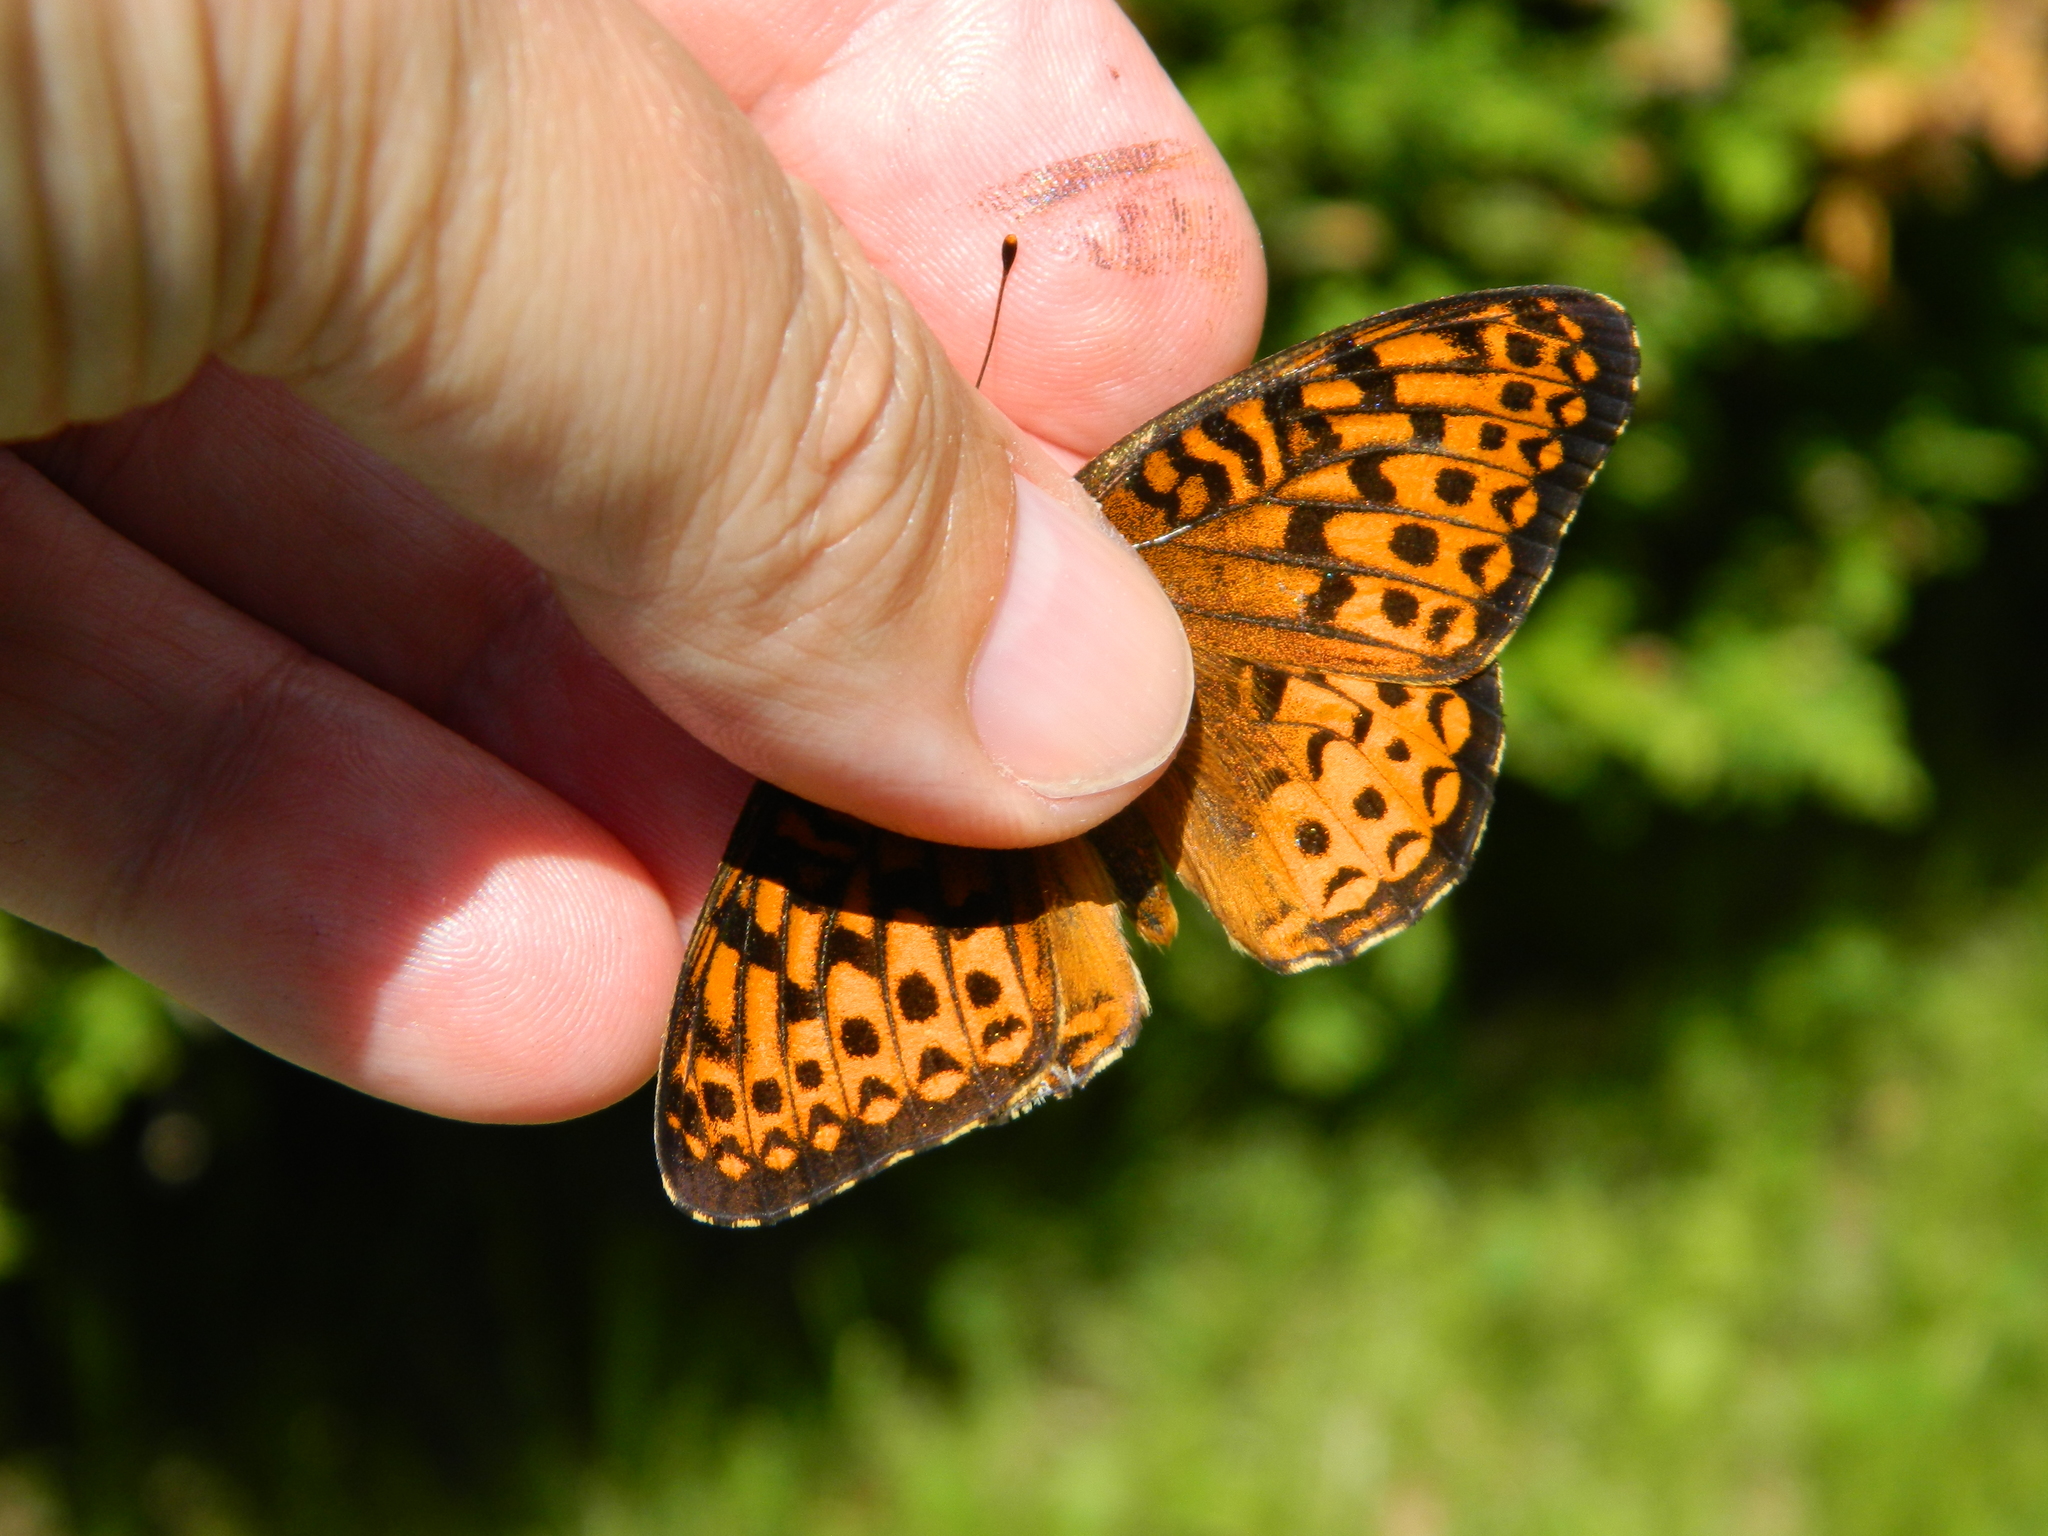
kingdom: Animalia
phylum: Arthropoda
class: Insecta
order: Lepidoptera
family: Nymphalidae
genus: Speyeria
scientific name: Speyeria atlantis
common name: Atlantis fritillary
